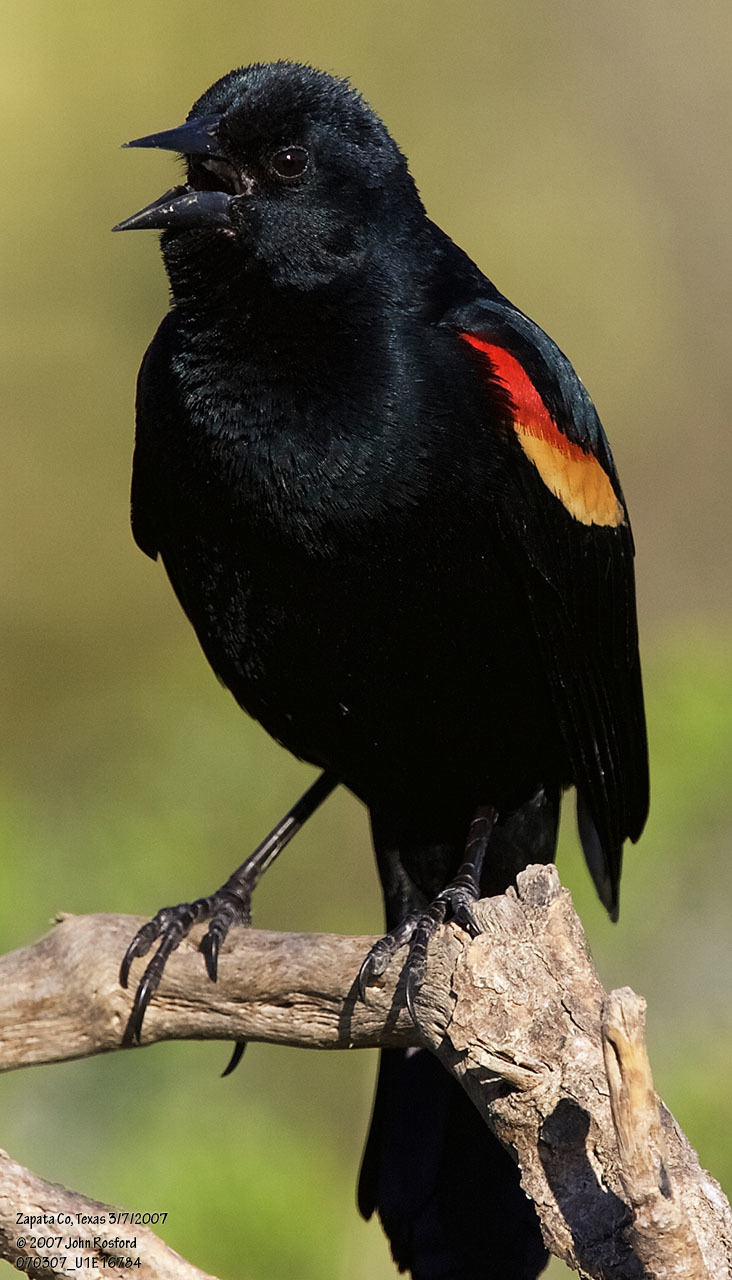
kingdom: Animalia
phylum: Chordata
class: Aves
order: Passeriformes
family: Icteridae
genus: Agelaius
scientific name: Agelaius phoeniceus
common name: Red-winged blackbird
